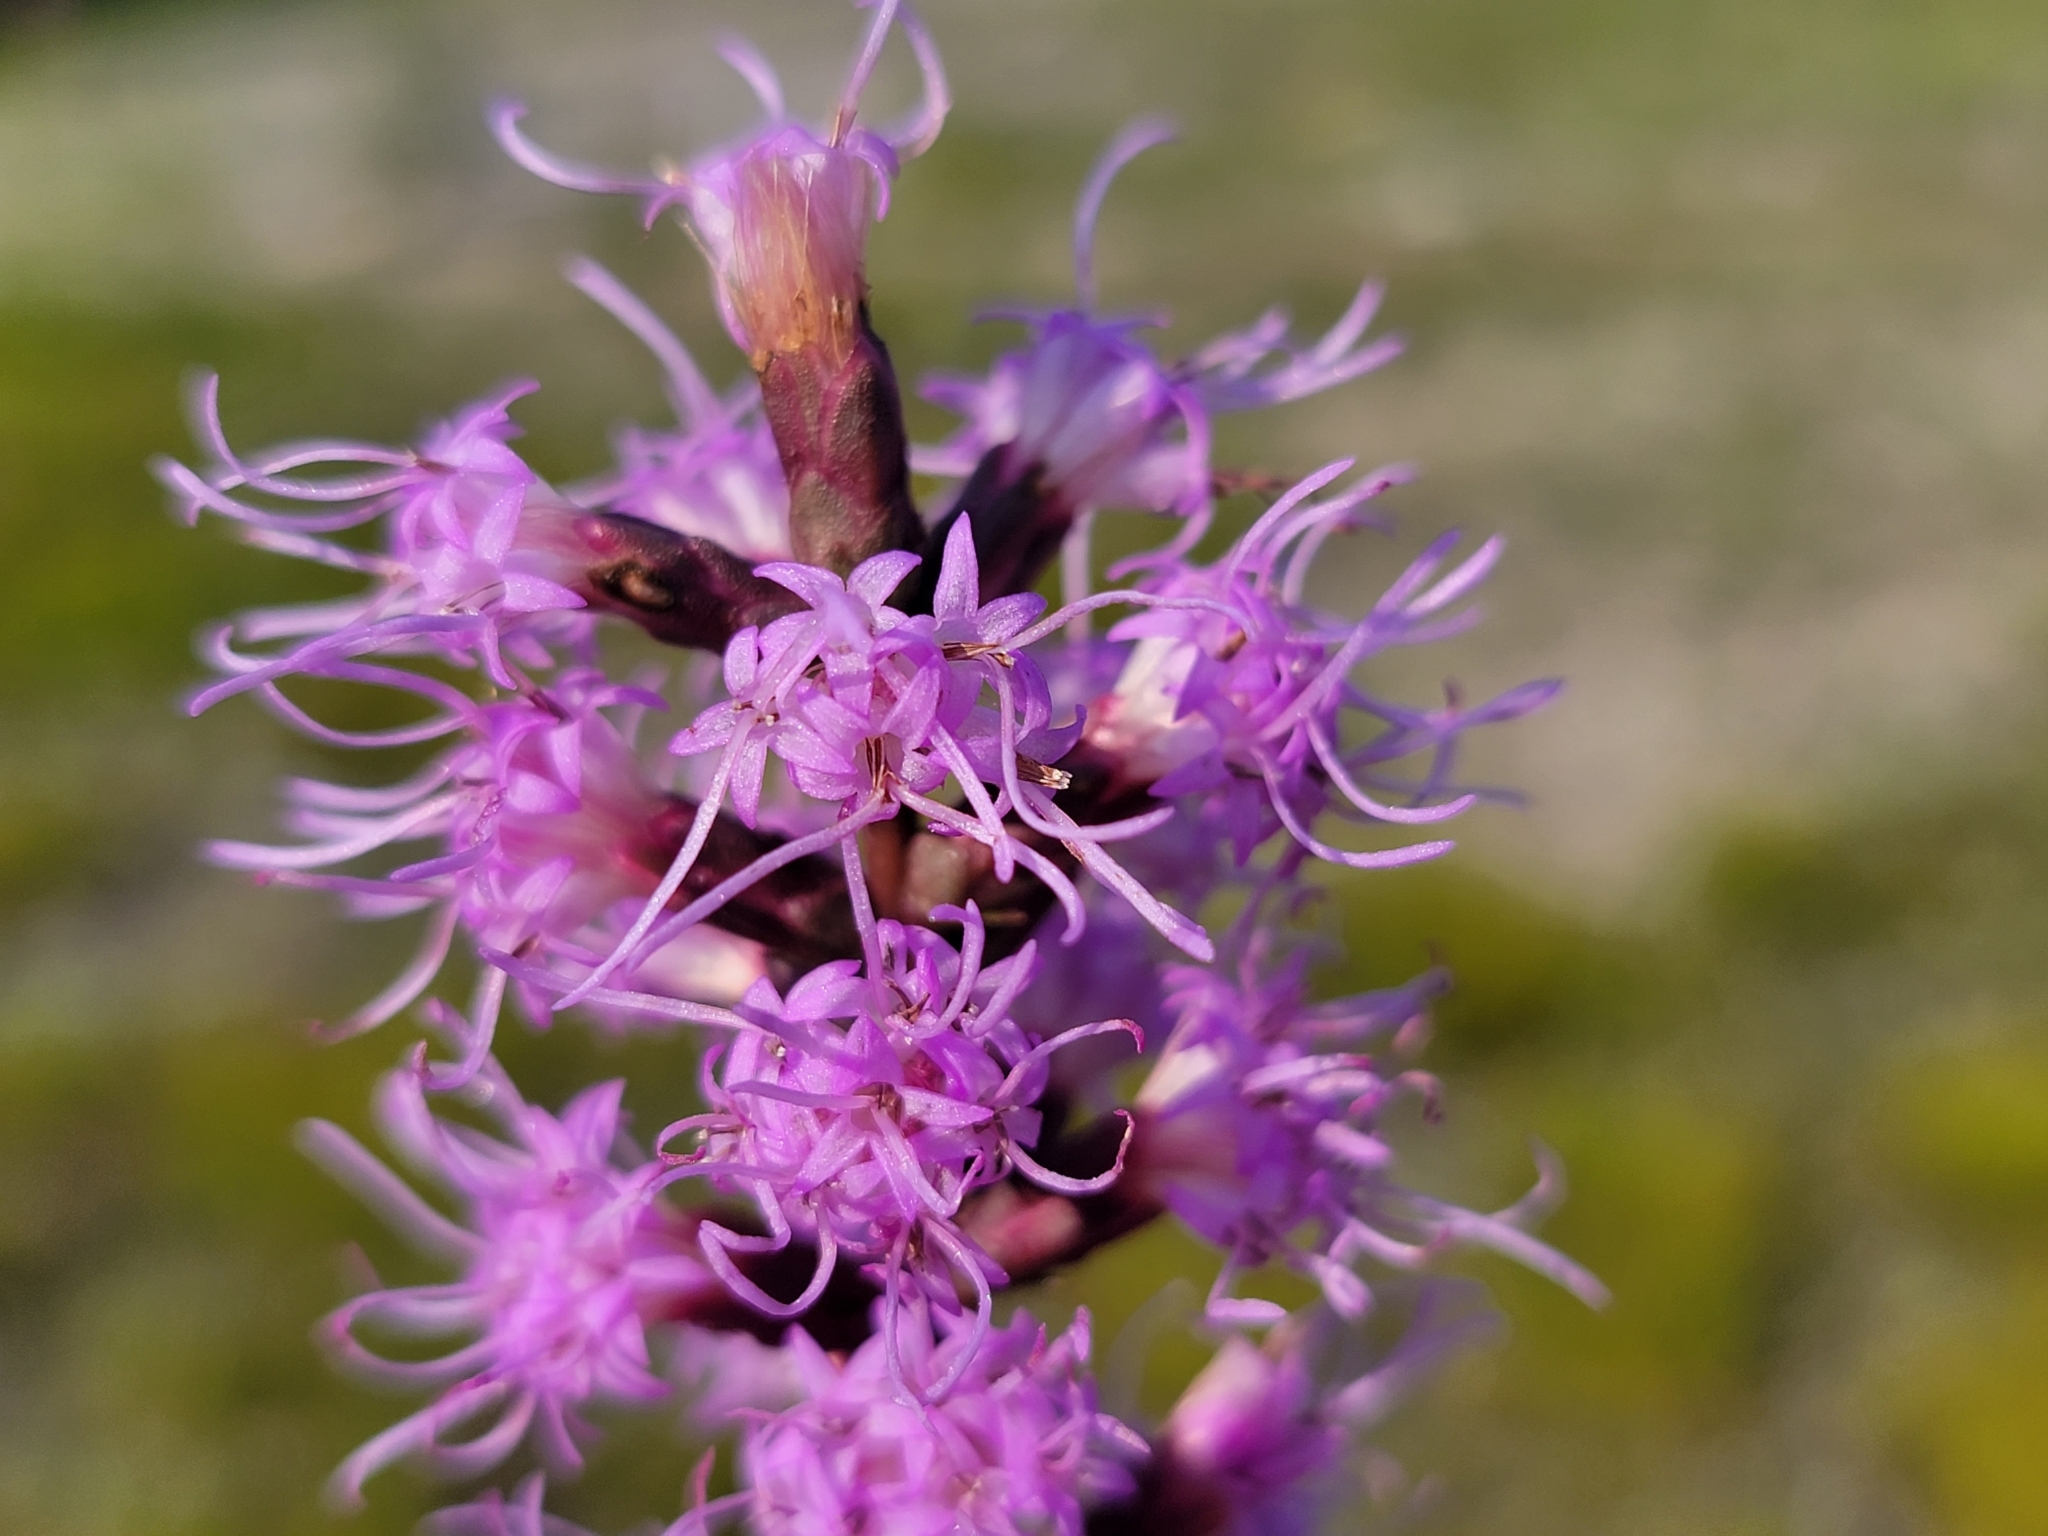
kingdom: Plantae
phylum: Tracheophyta
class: Magnoliopsida
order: Asterales
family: Asteraceae
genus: Liatris
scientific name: Liatris spicata
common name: Florist gayfeather
